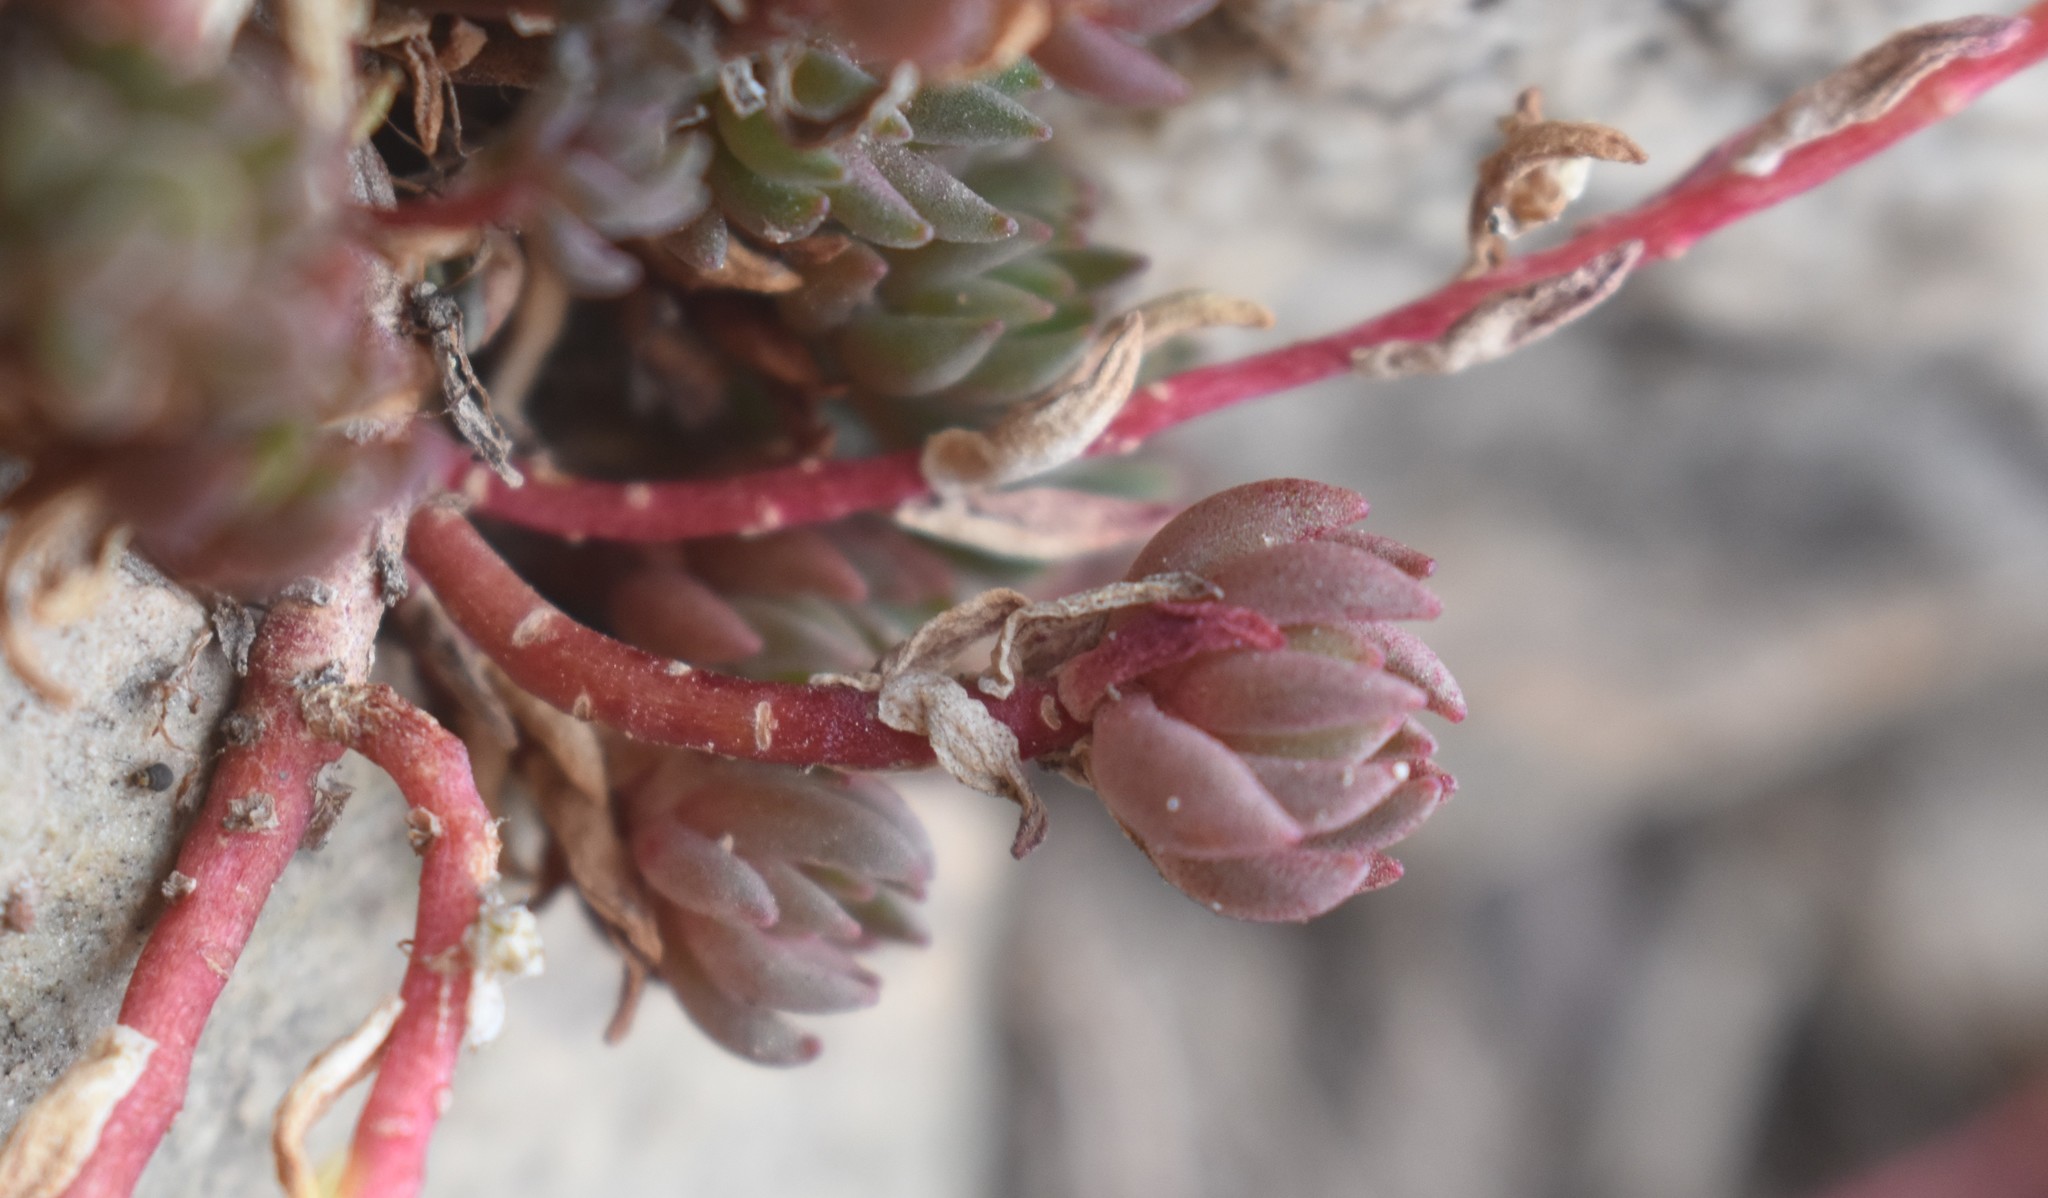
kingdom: Plantae
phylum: Tracheophyta
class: Magnoliopsida
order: Saxifragales
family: Crassulaceae
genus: Sedum
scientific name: Sedum lanceolatum
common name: Common stonecrop
